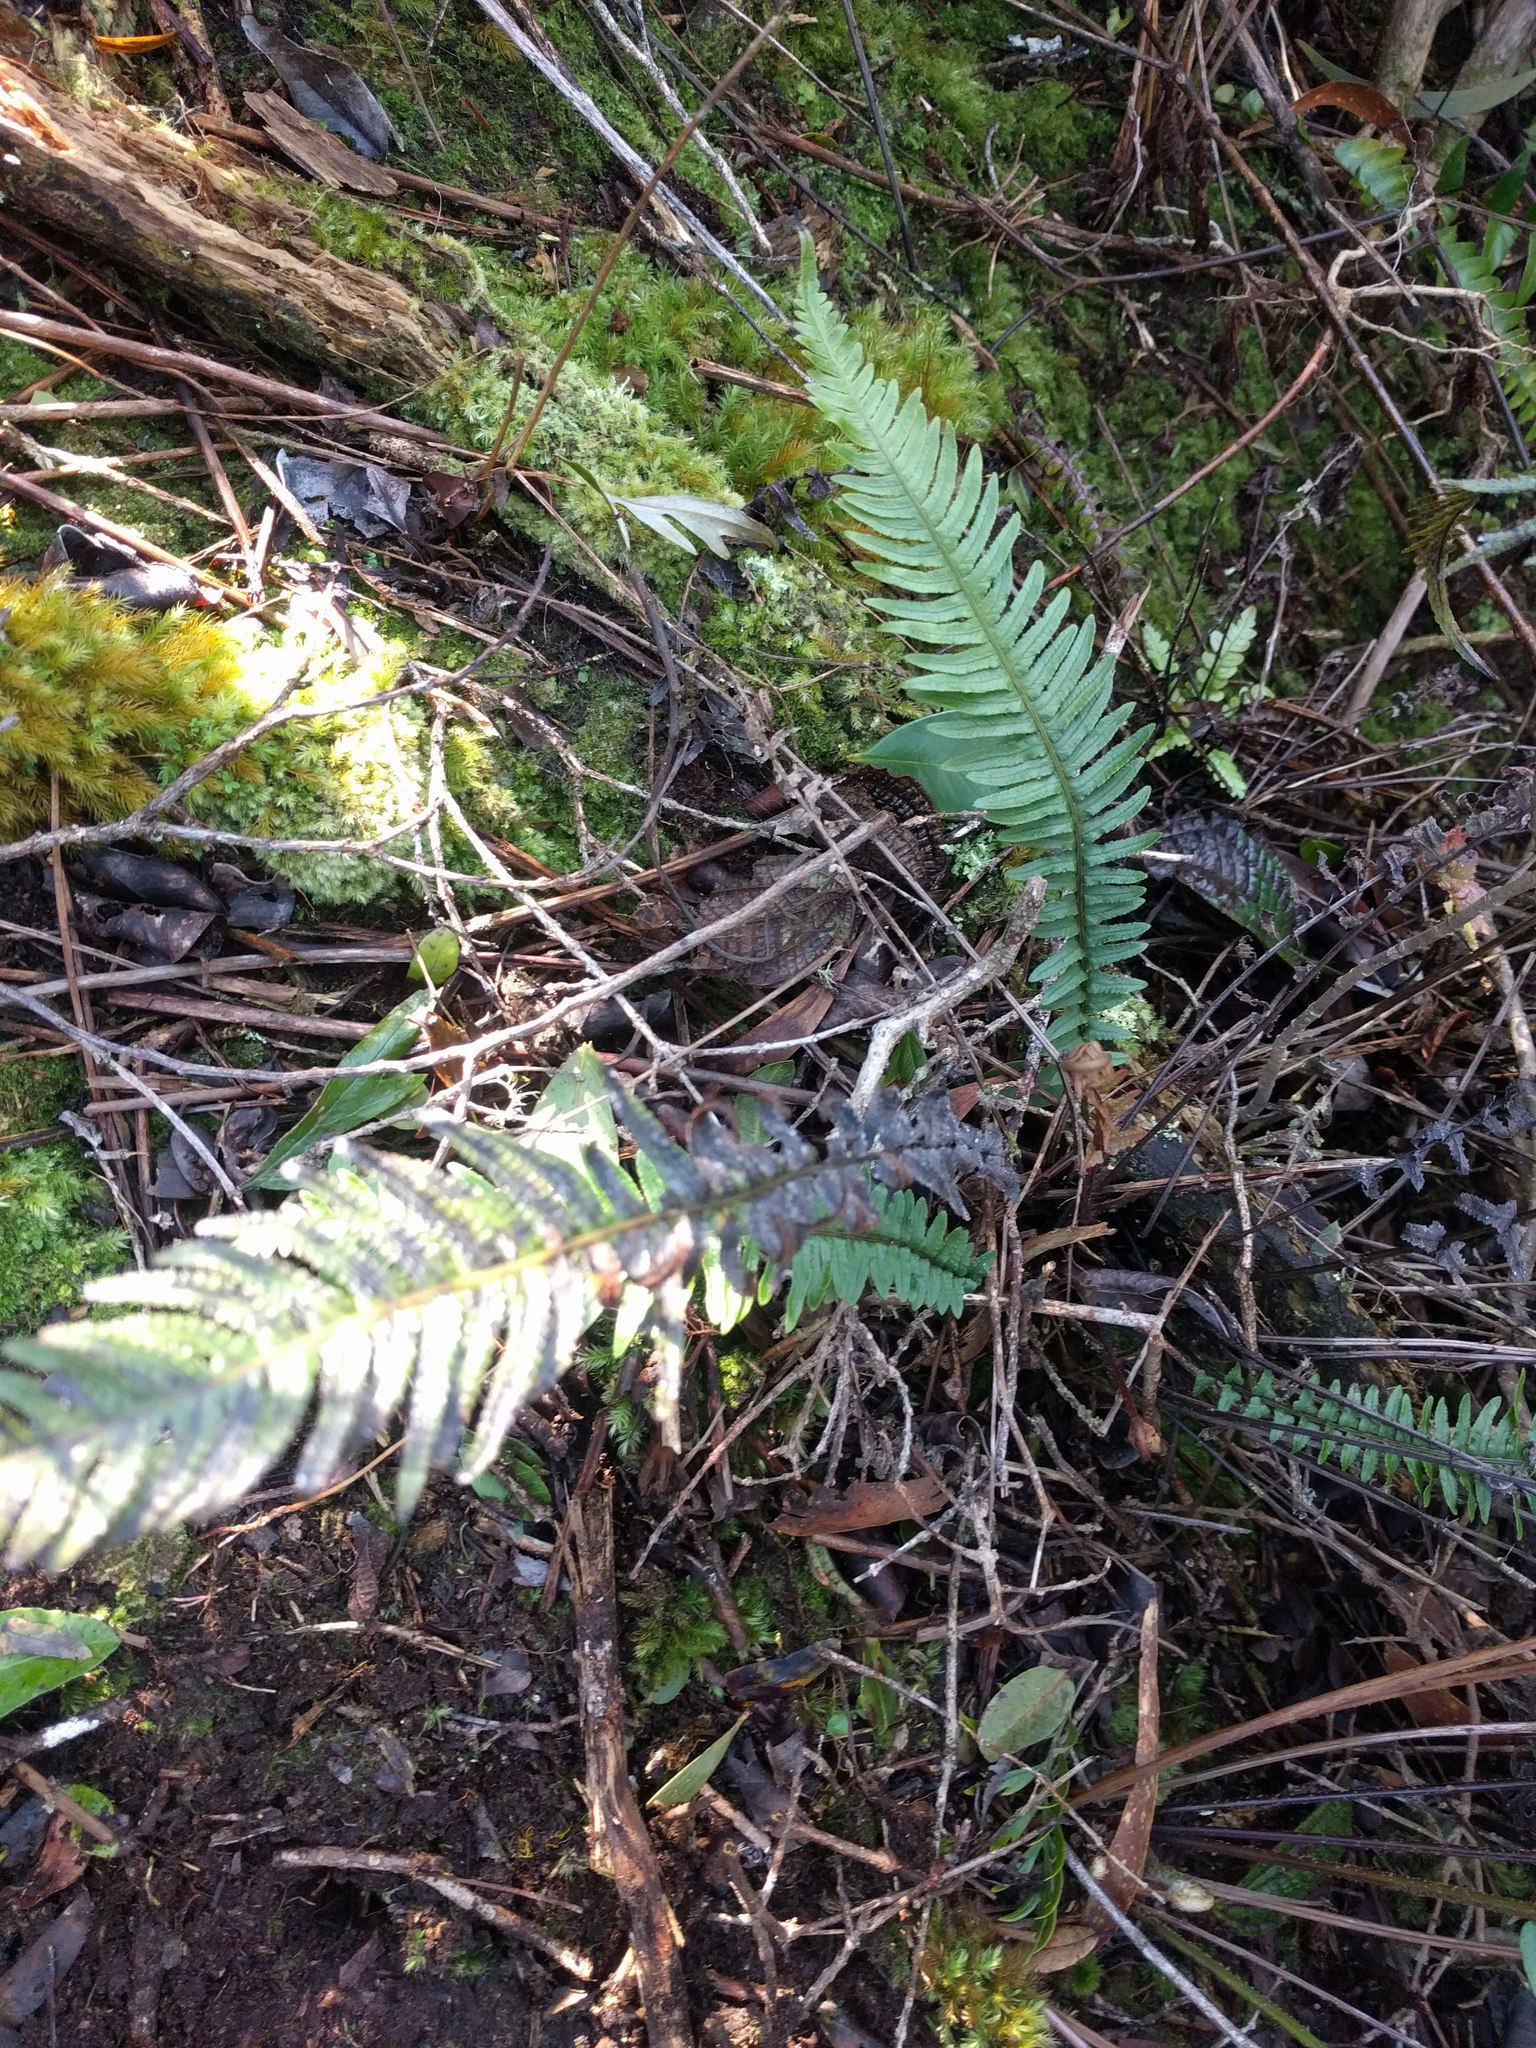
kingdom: Plantae
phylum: Tracheophyta
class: Polypodiopsida
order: Polypodiales
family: Blechnaceae
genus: Doodia
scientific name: Doodia kunthiana
